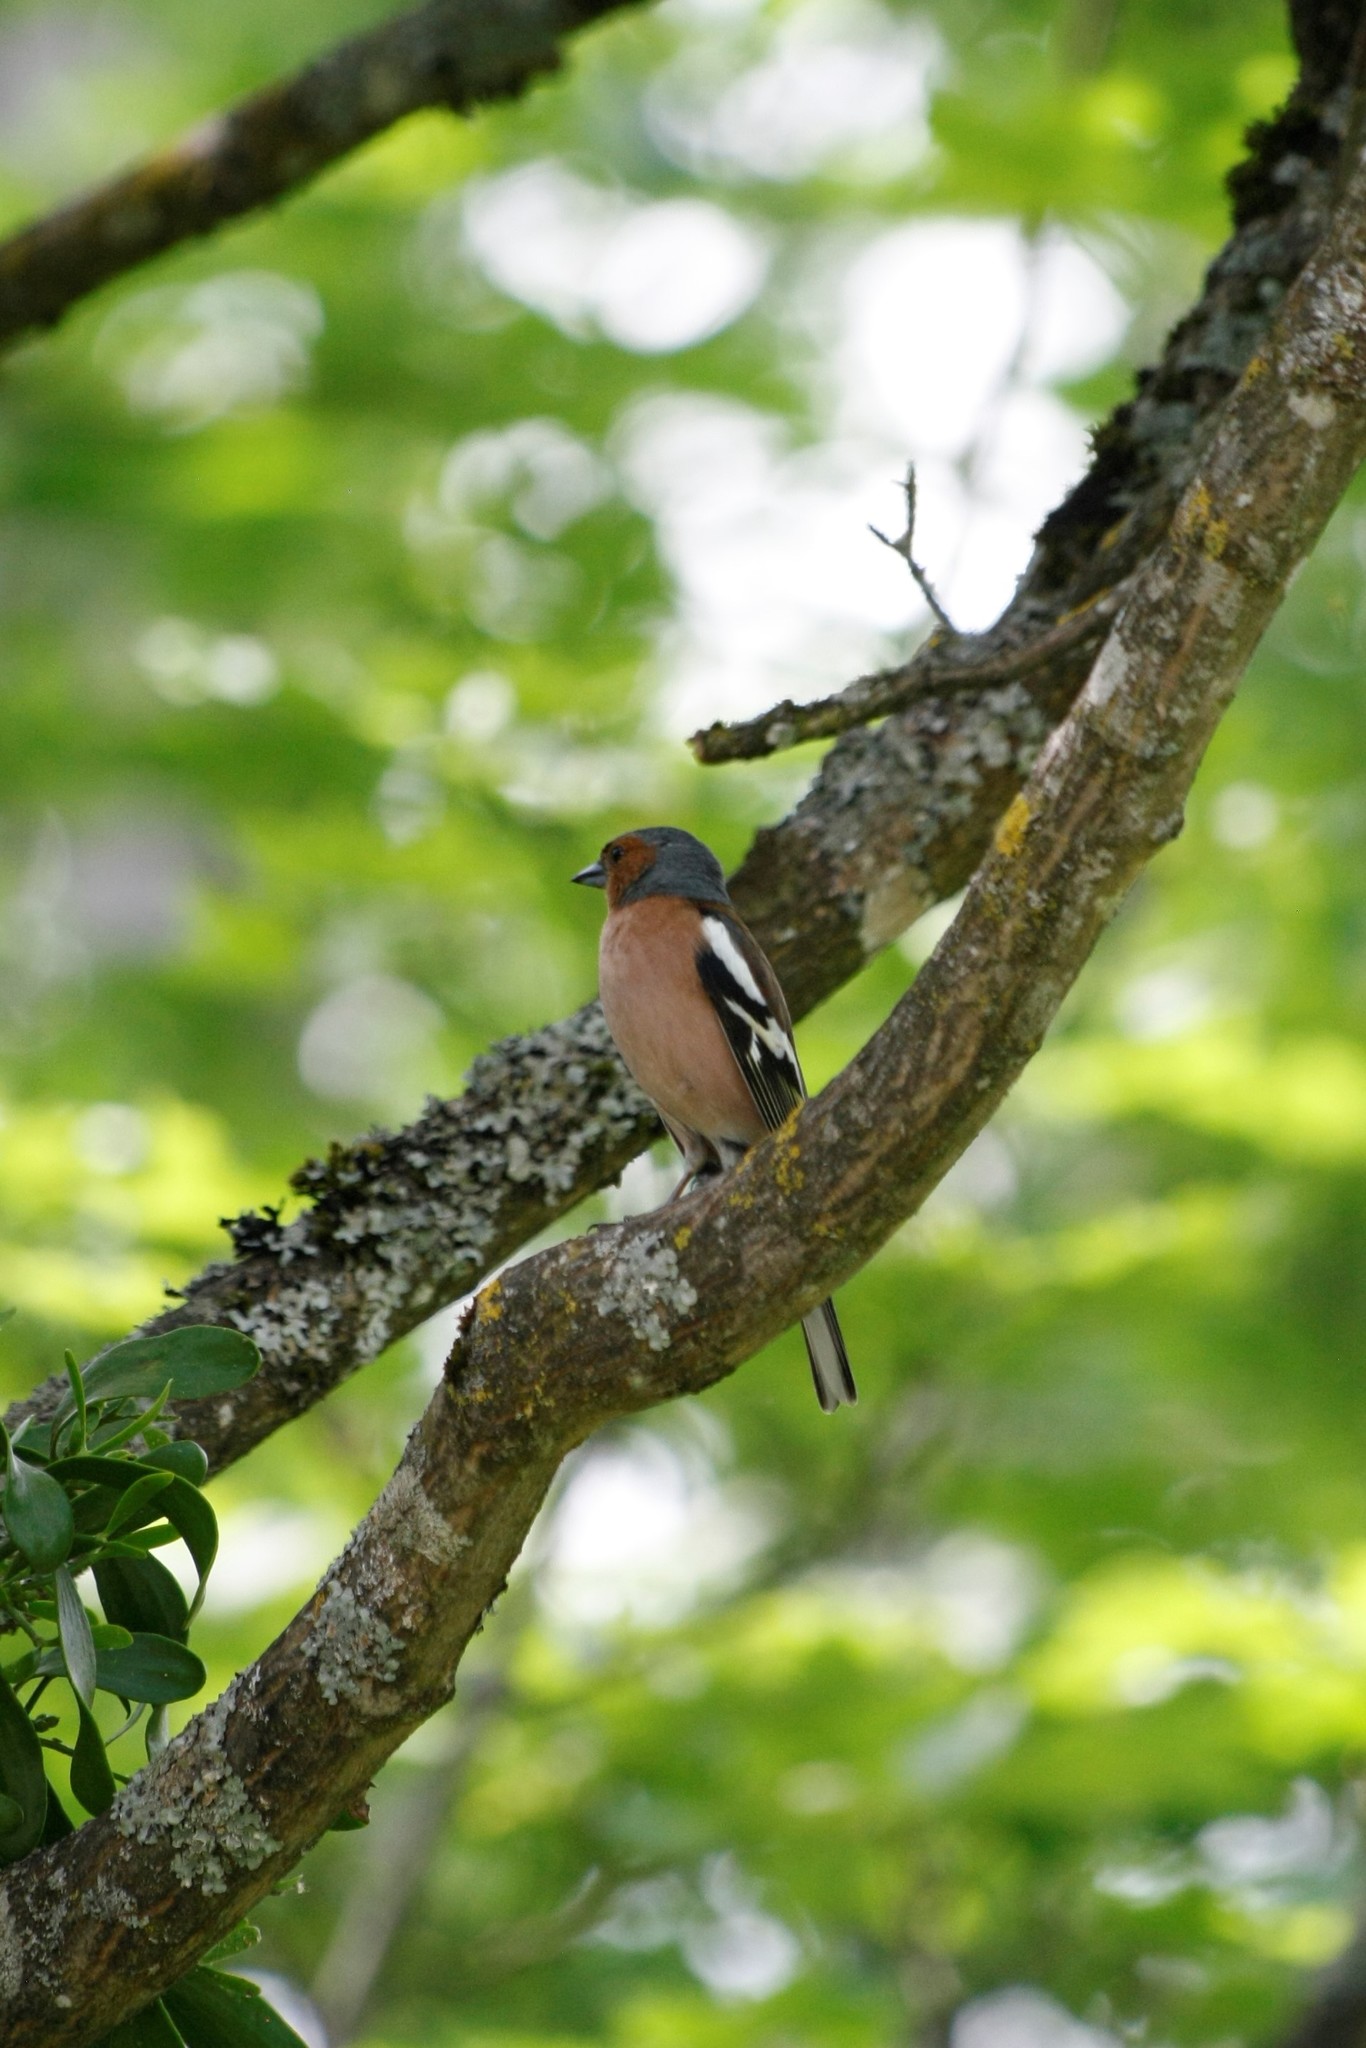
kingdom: Animalia
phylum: Chordata
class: Aves
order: Passeriformes
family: Fringillidae
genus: Fringilla
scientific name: Fringilla coelebs
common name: Common chaffinch
